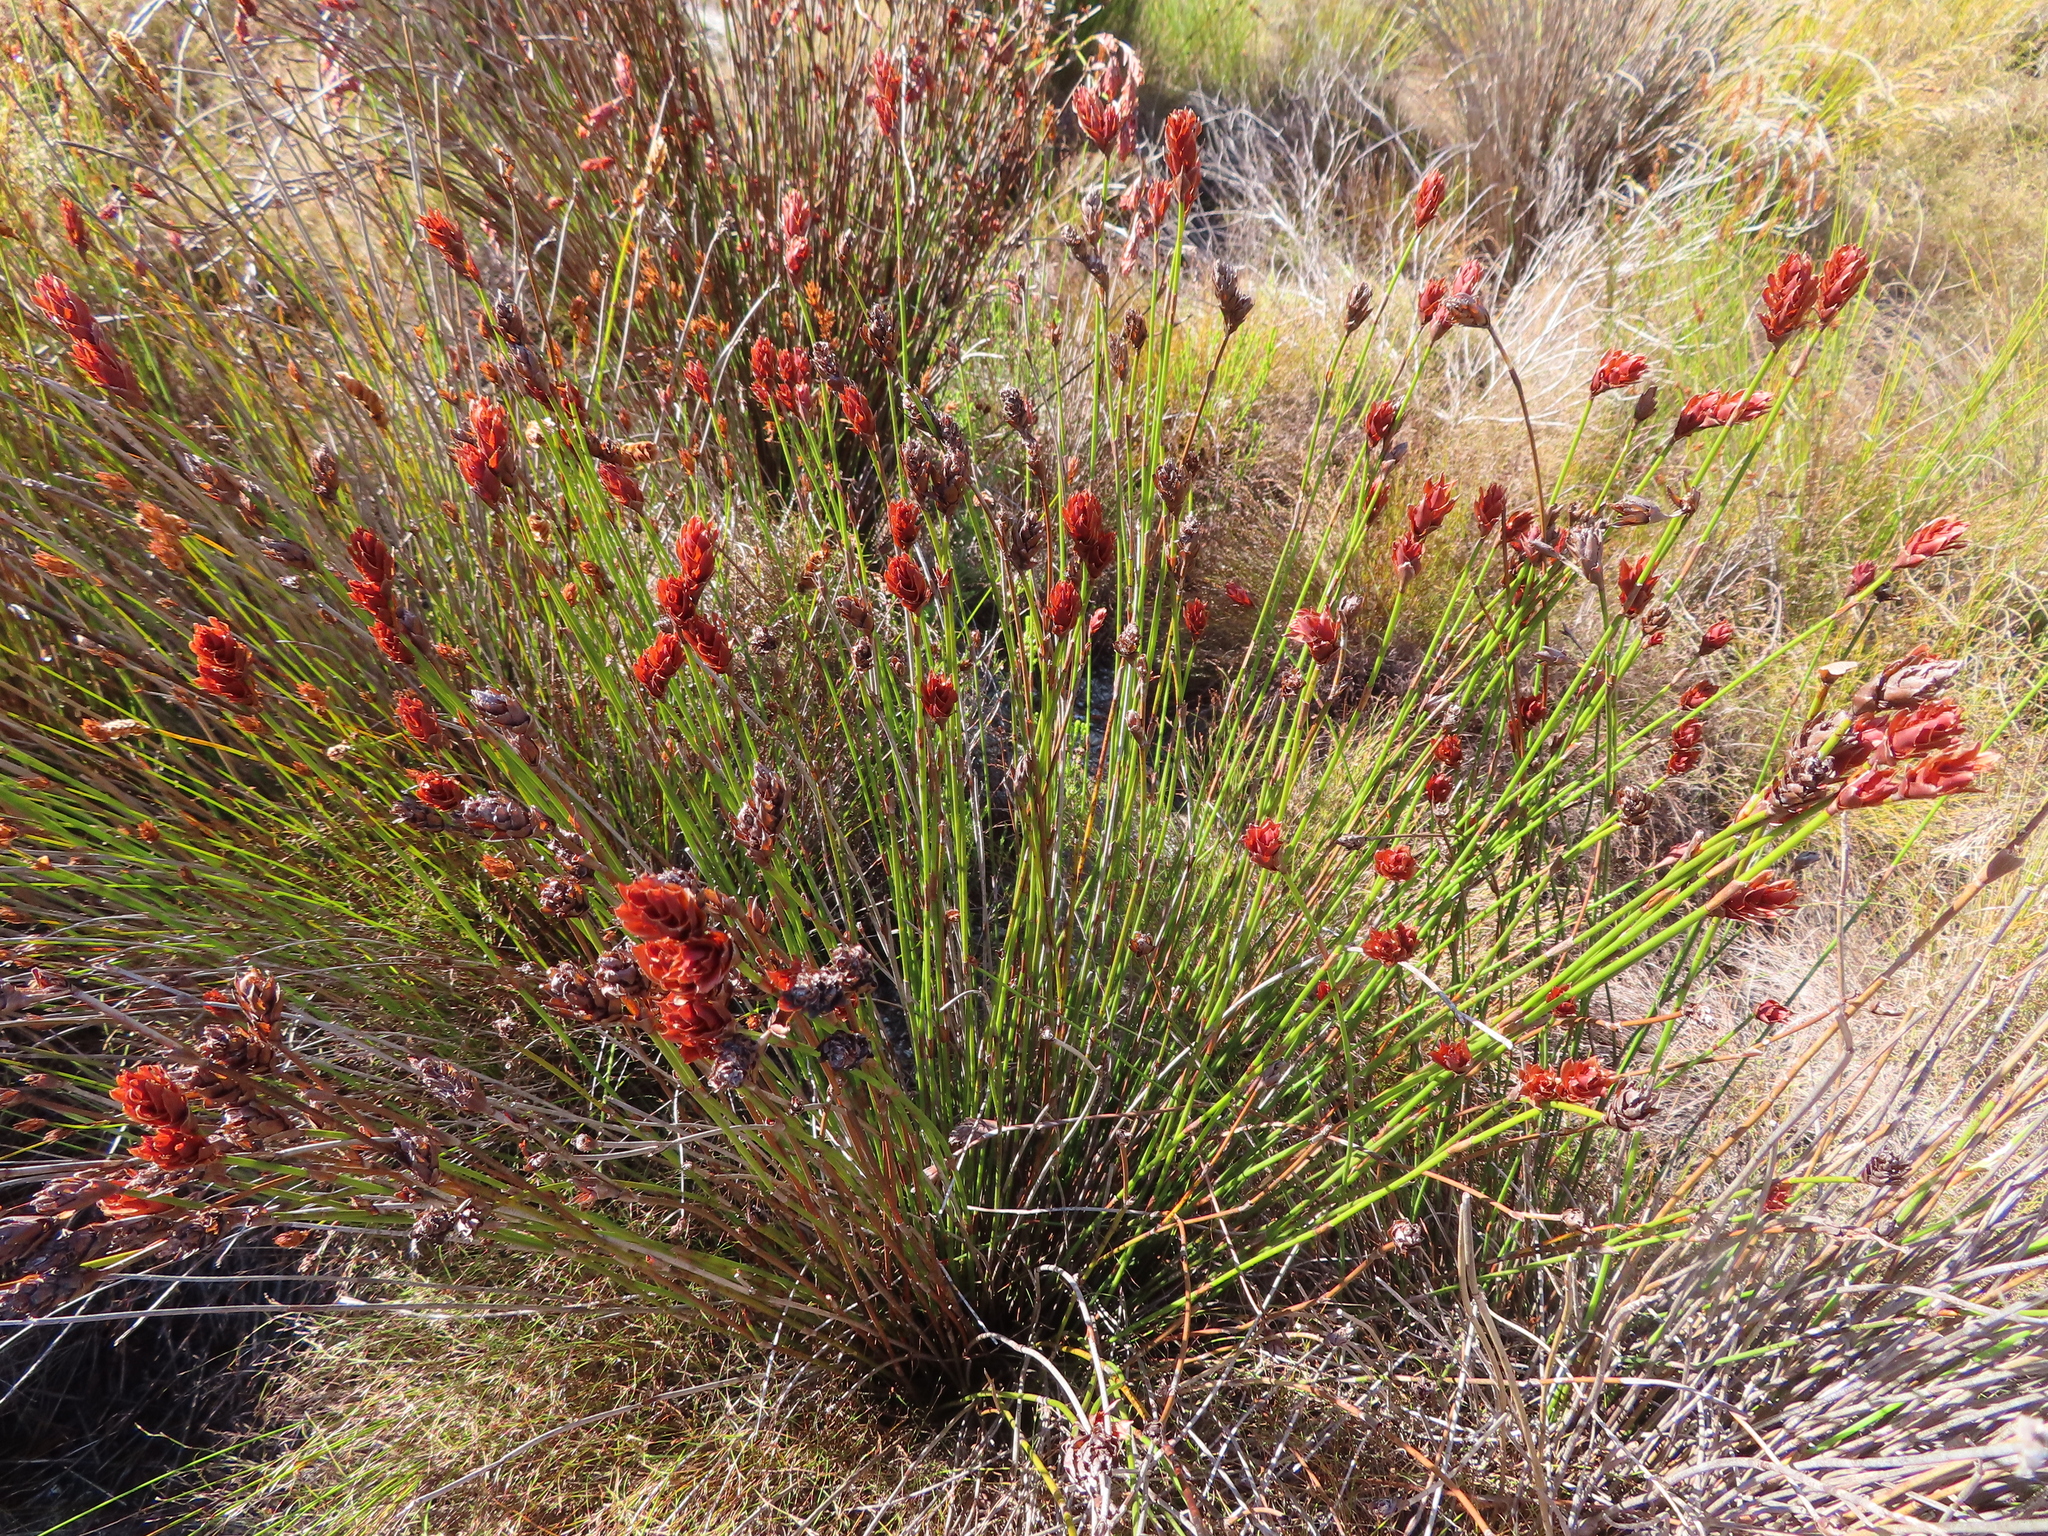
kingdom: Plantae
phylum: Tracheophyta
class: Liliopsida
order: Poales
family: Restionaceae
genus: Restio
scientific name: Restio bifarius
